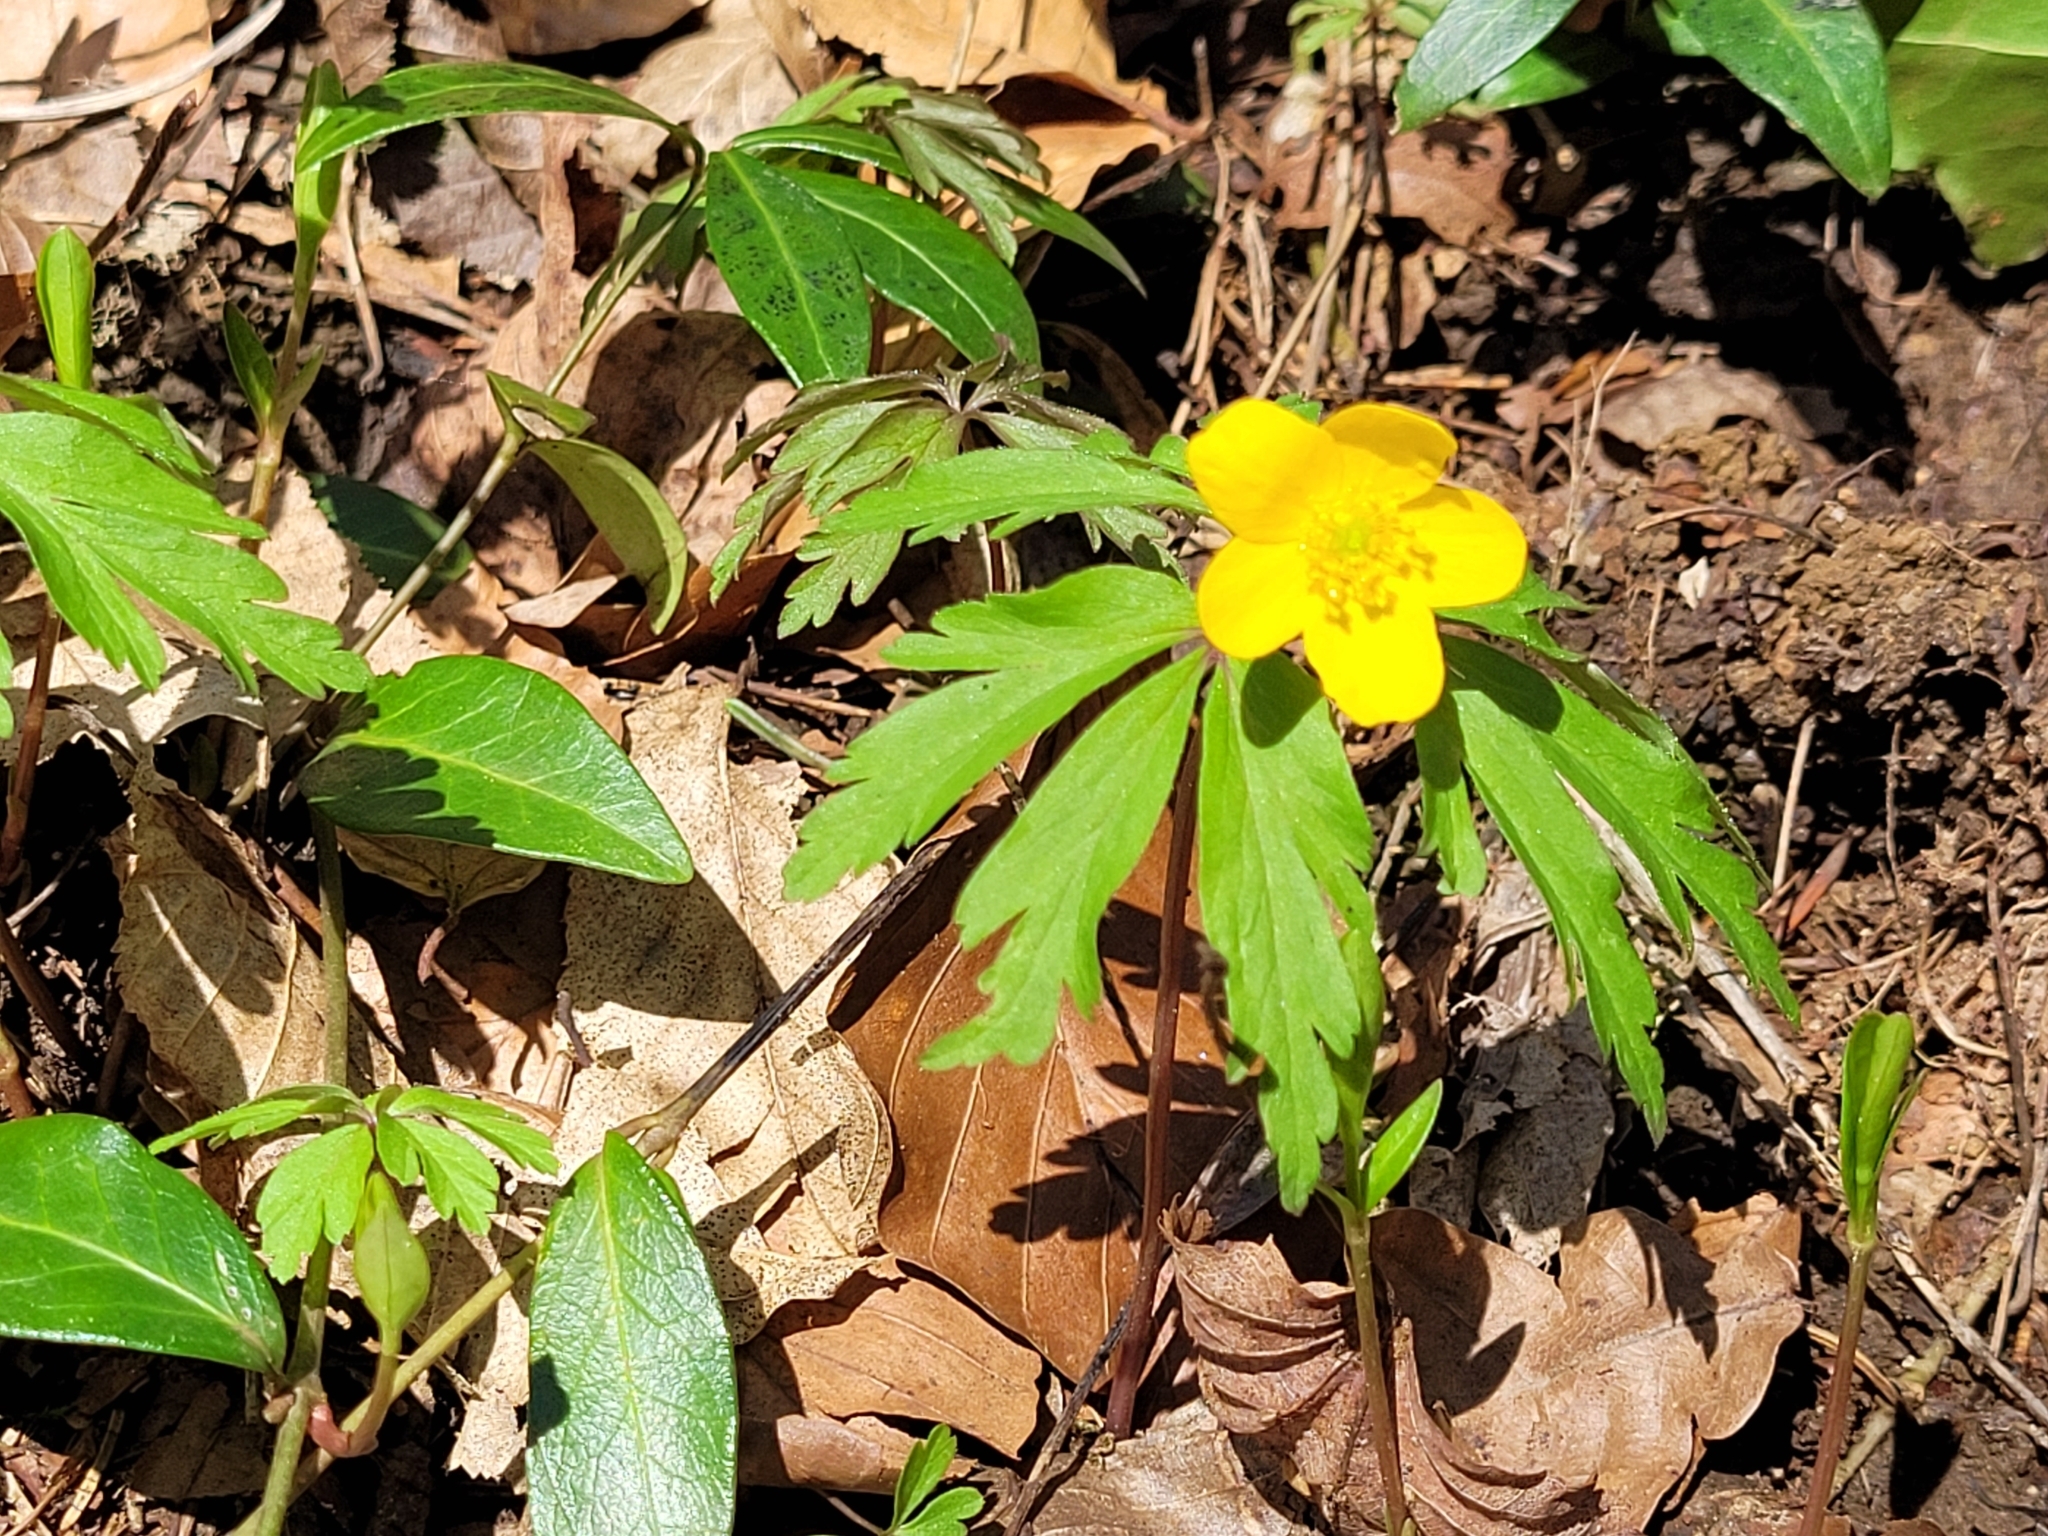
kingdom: Plantae
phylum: Tracheophyta
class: Magnoliopsida
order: Ranunculales
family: Ranunculaceae
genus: Anemone
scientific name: Anemone ranunculoides
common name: Yellow anemone
